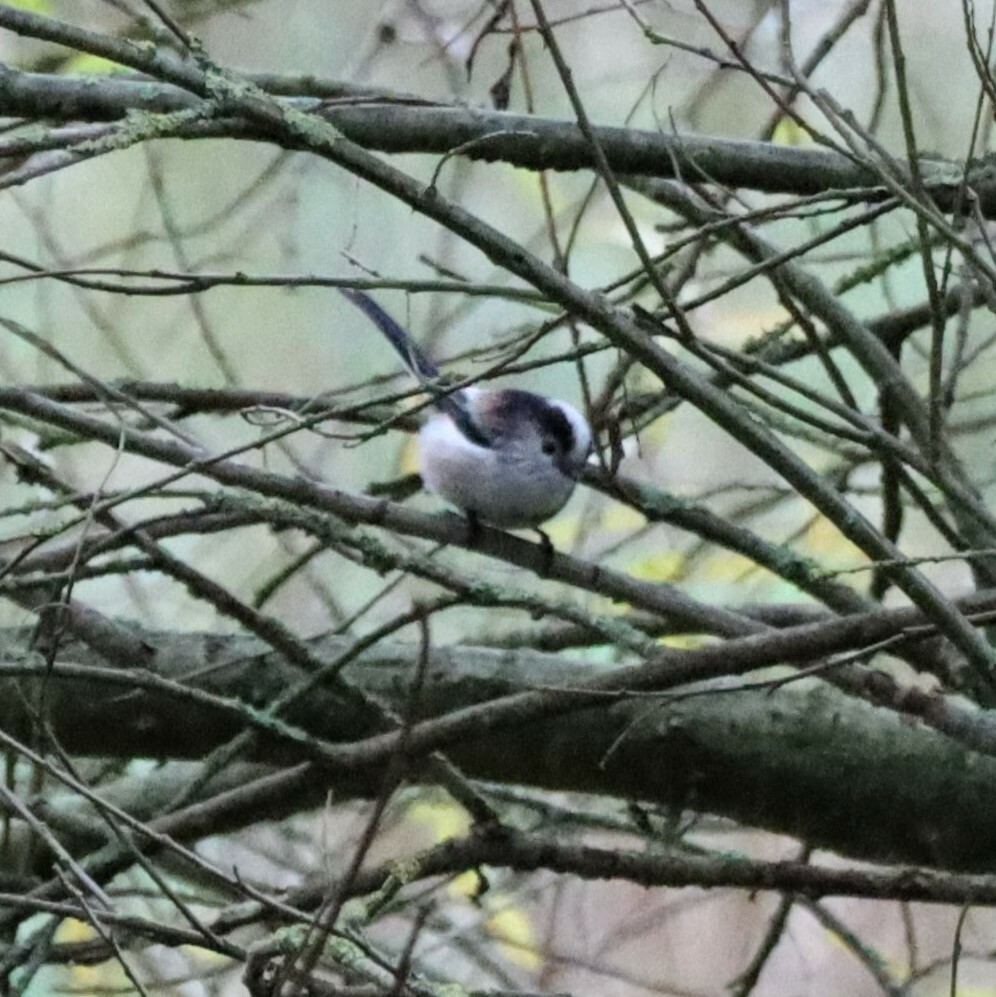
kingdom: Animalia
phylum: Chordata
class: Aves
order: Passeriformes
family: Aegithalidae
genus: Aegithalos
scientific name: Aegithalos caudatus
